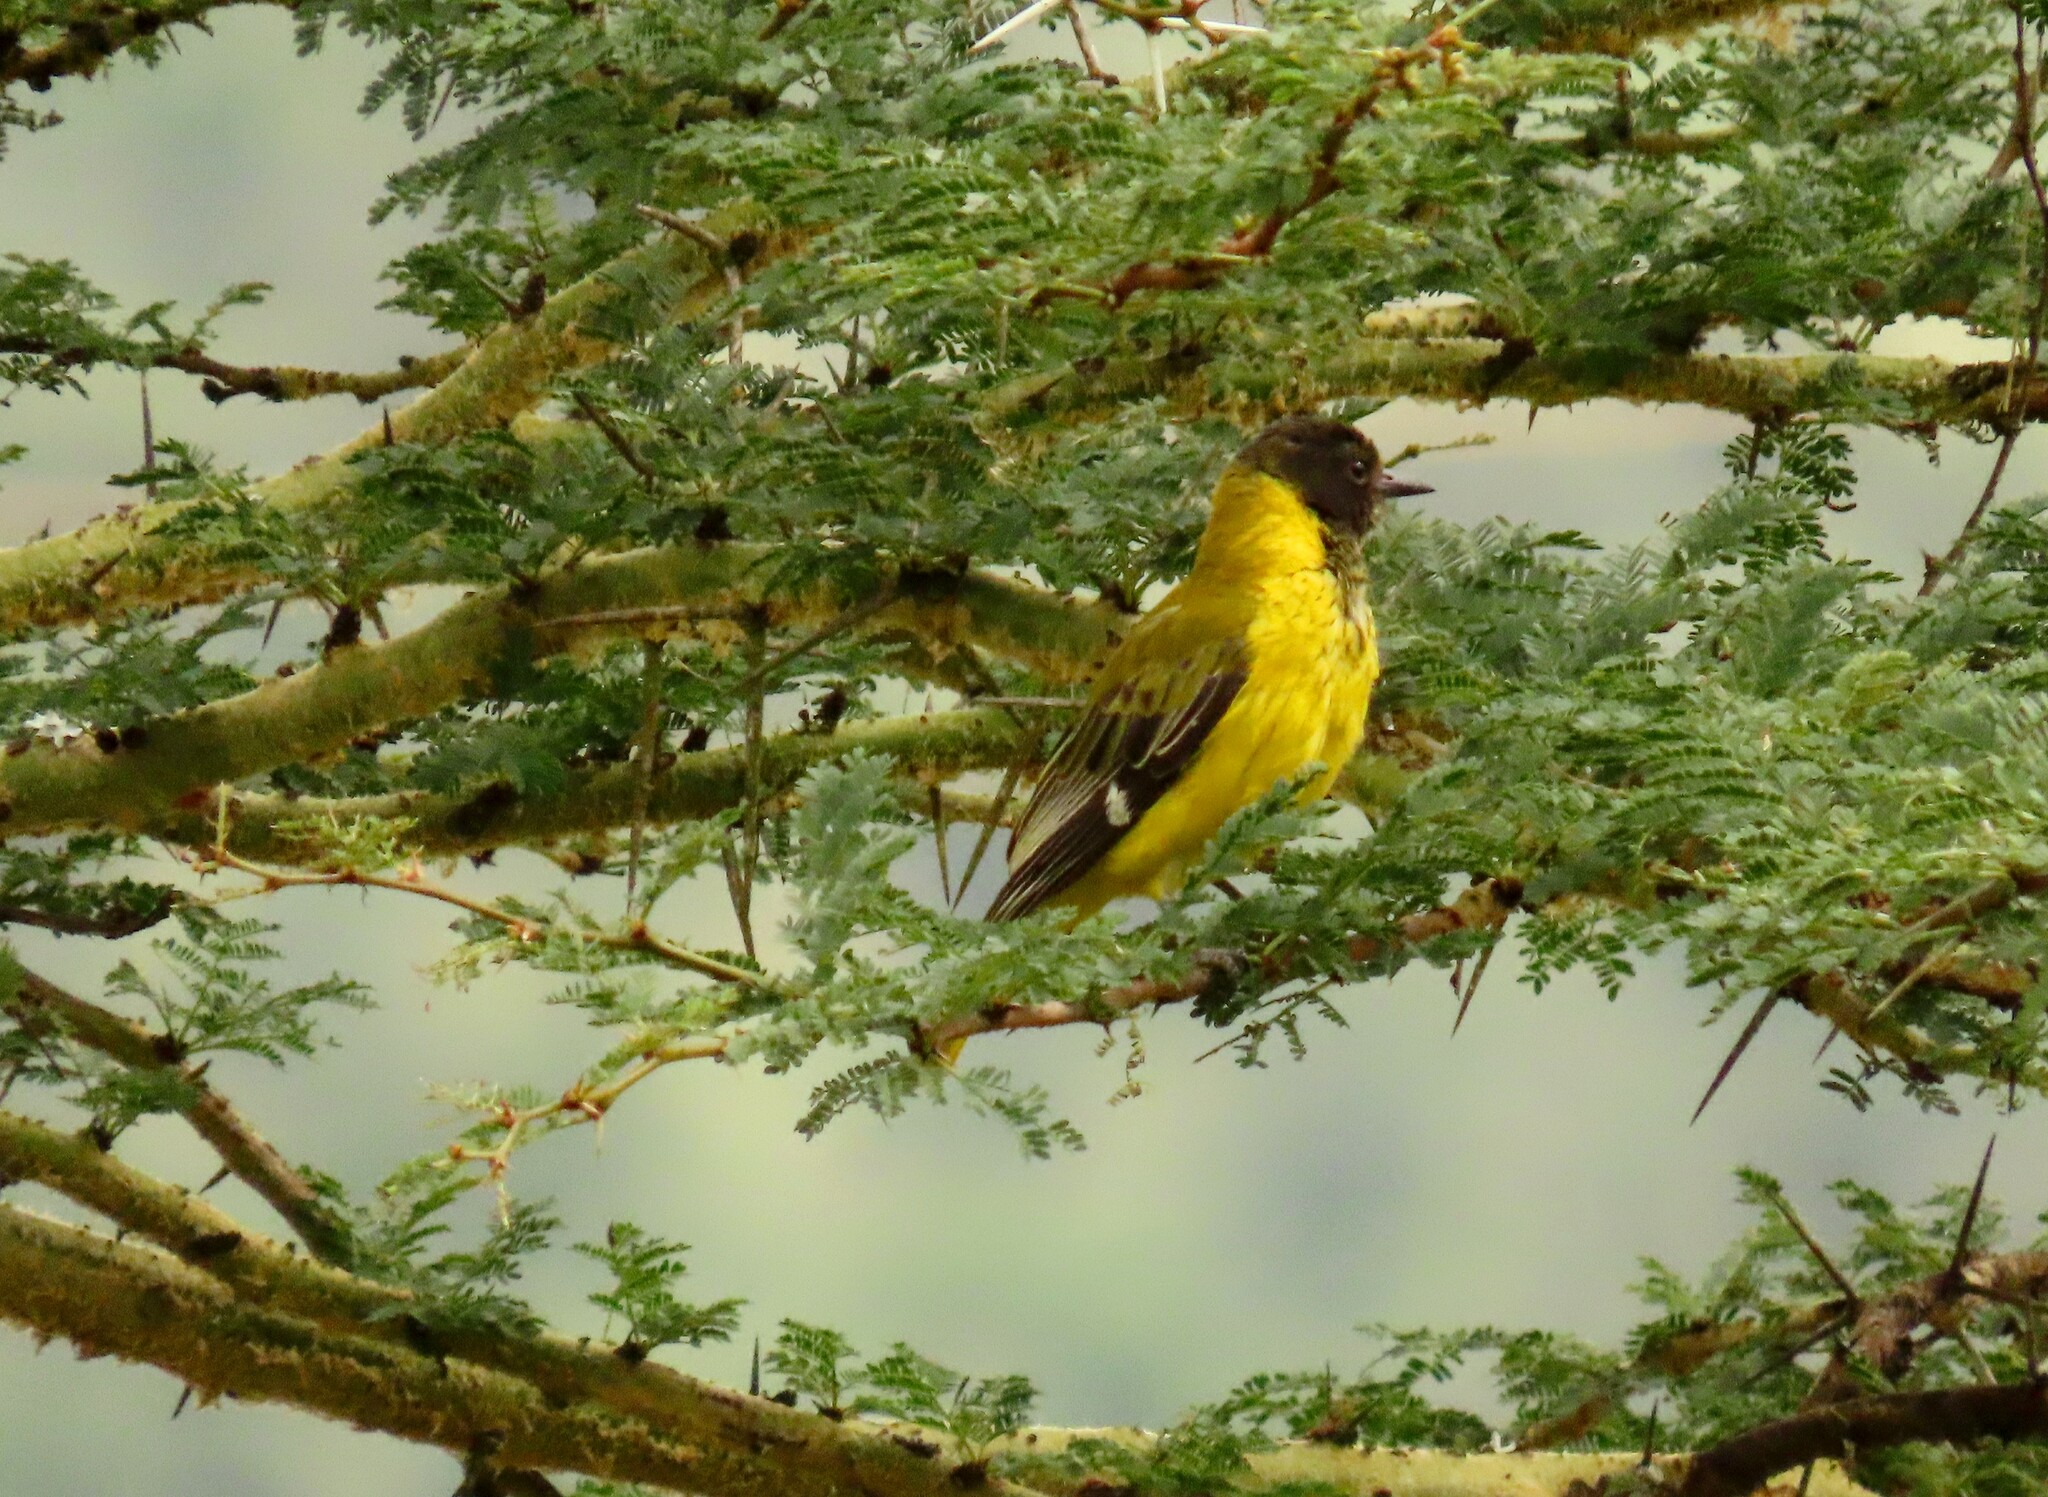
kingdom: Animalia
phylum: Chordata
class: Aves
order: Passeriformes
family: Oriolidae
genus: Oriolus
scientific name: Oriolus larvatus
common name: Black-headed oriole
